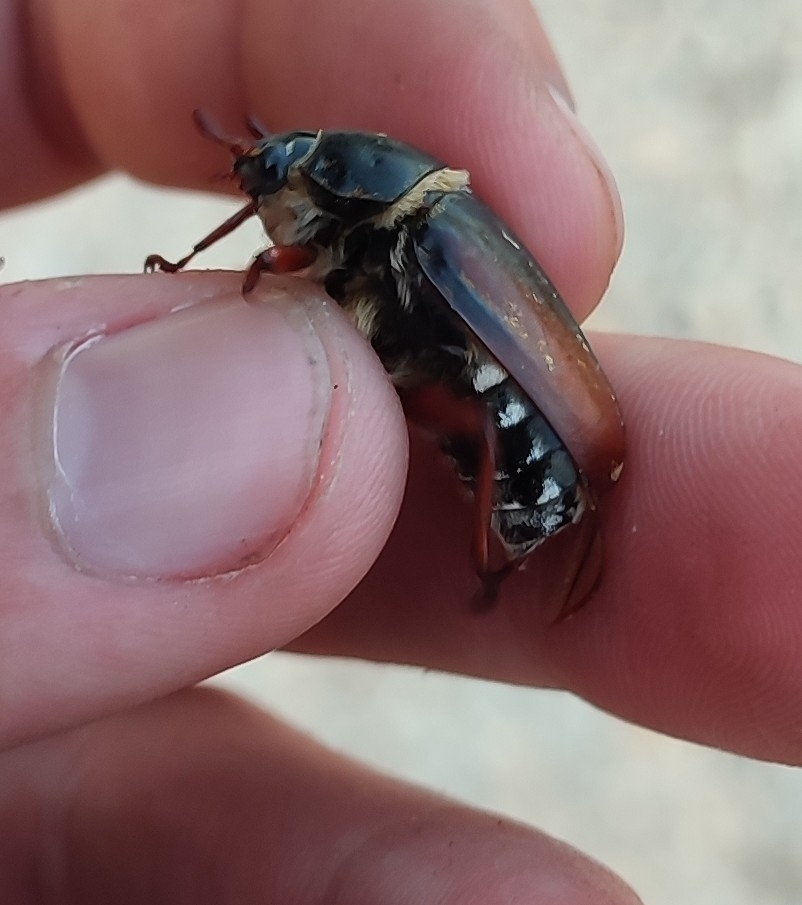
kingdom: Animalia
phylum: Arthropoda
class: Insecta
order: Coleoptera
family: Scarabaeidae
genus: Anoxia
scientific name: Anoxia australis
